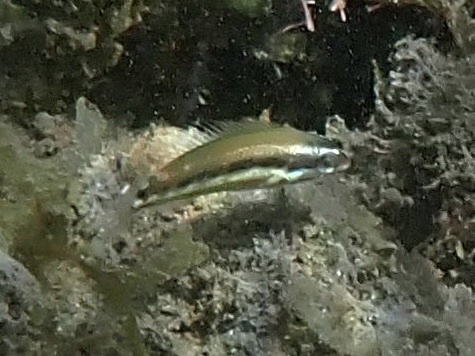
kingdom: Animalia
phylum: Chordata
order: Perciformes
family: Labridae
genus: Thalassoma
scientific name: Thalassoma duperrey
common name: Saddle wrasse
